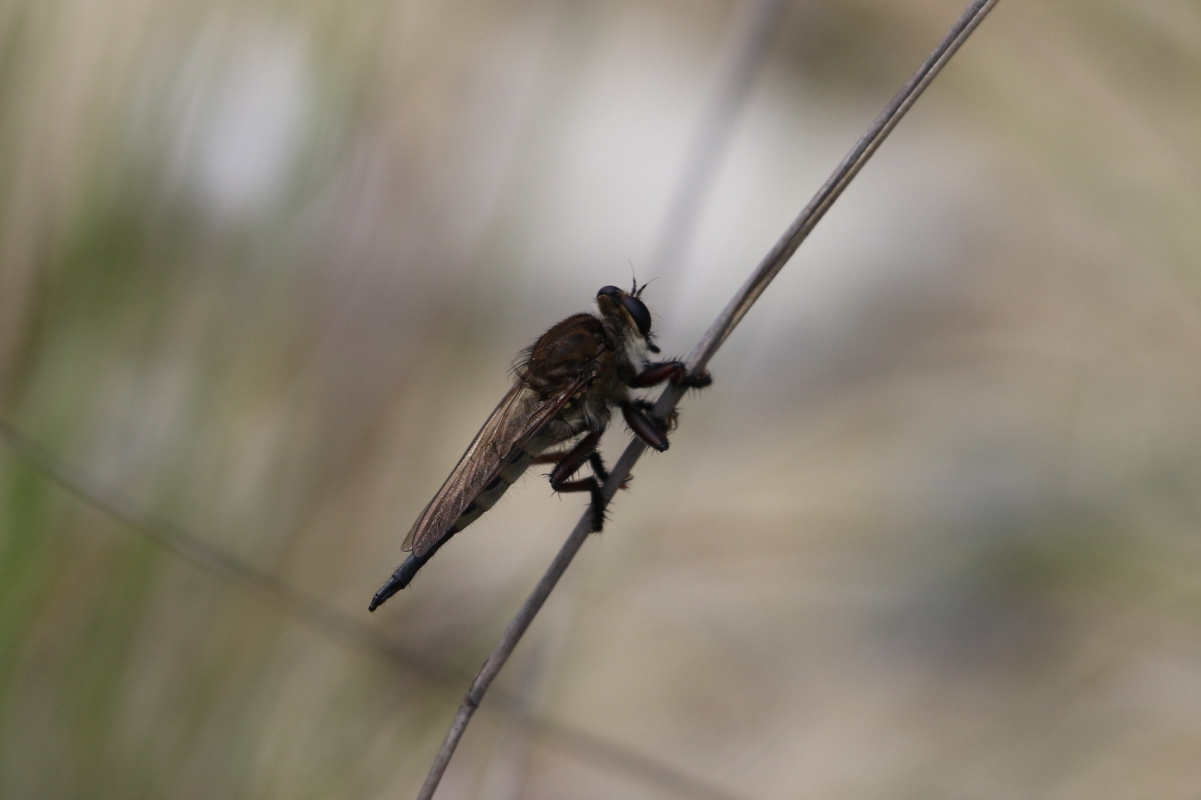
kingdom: Animalia
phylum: Arthropoda
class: Insecta
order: Diptera
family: Asilidae
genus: Promachus
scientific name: Promachus hinei
